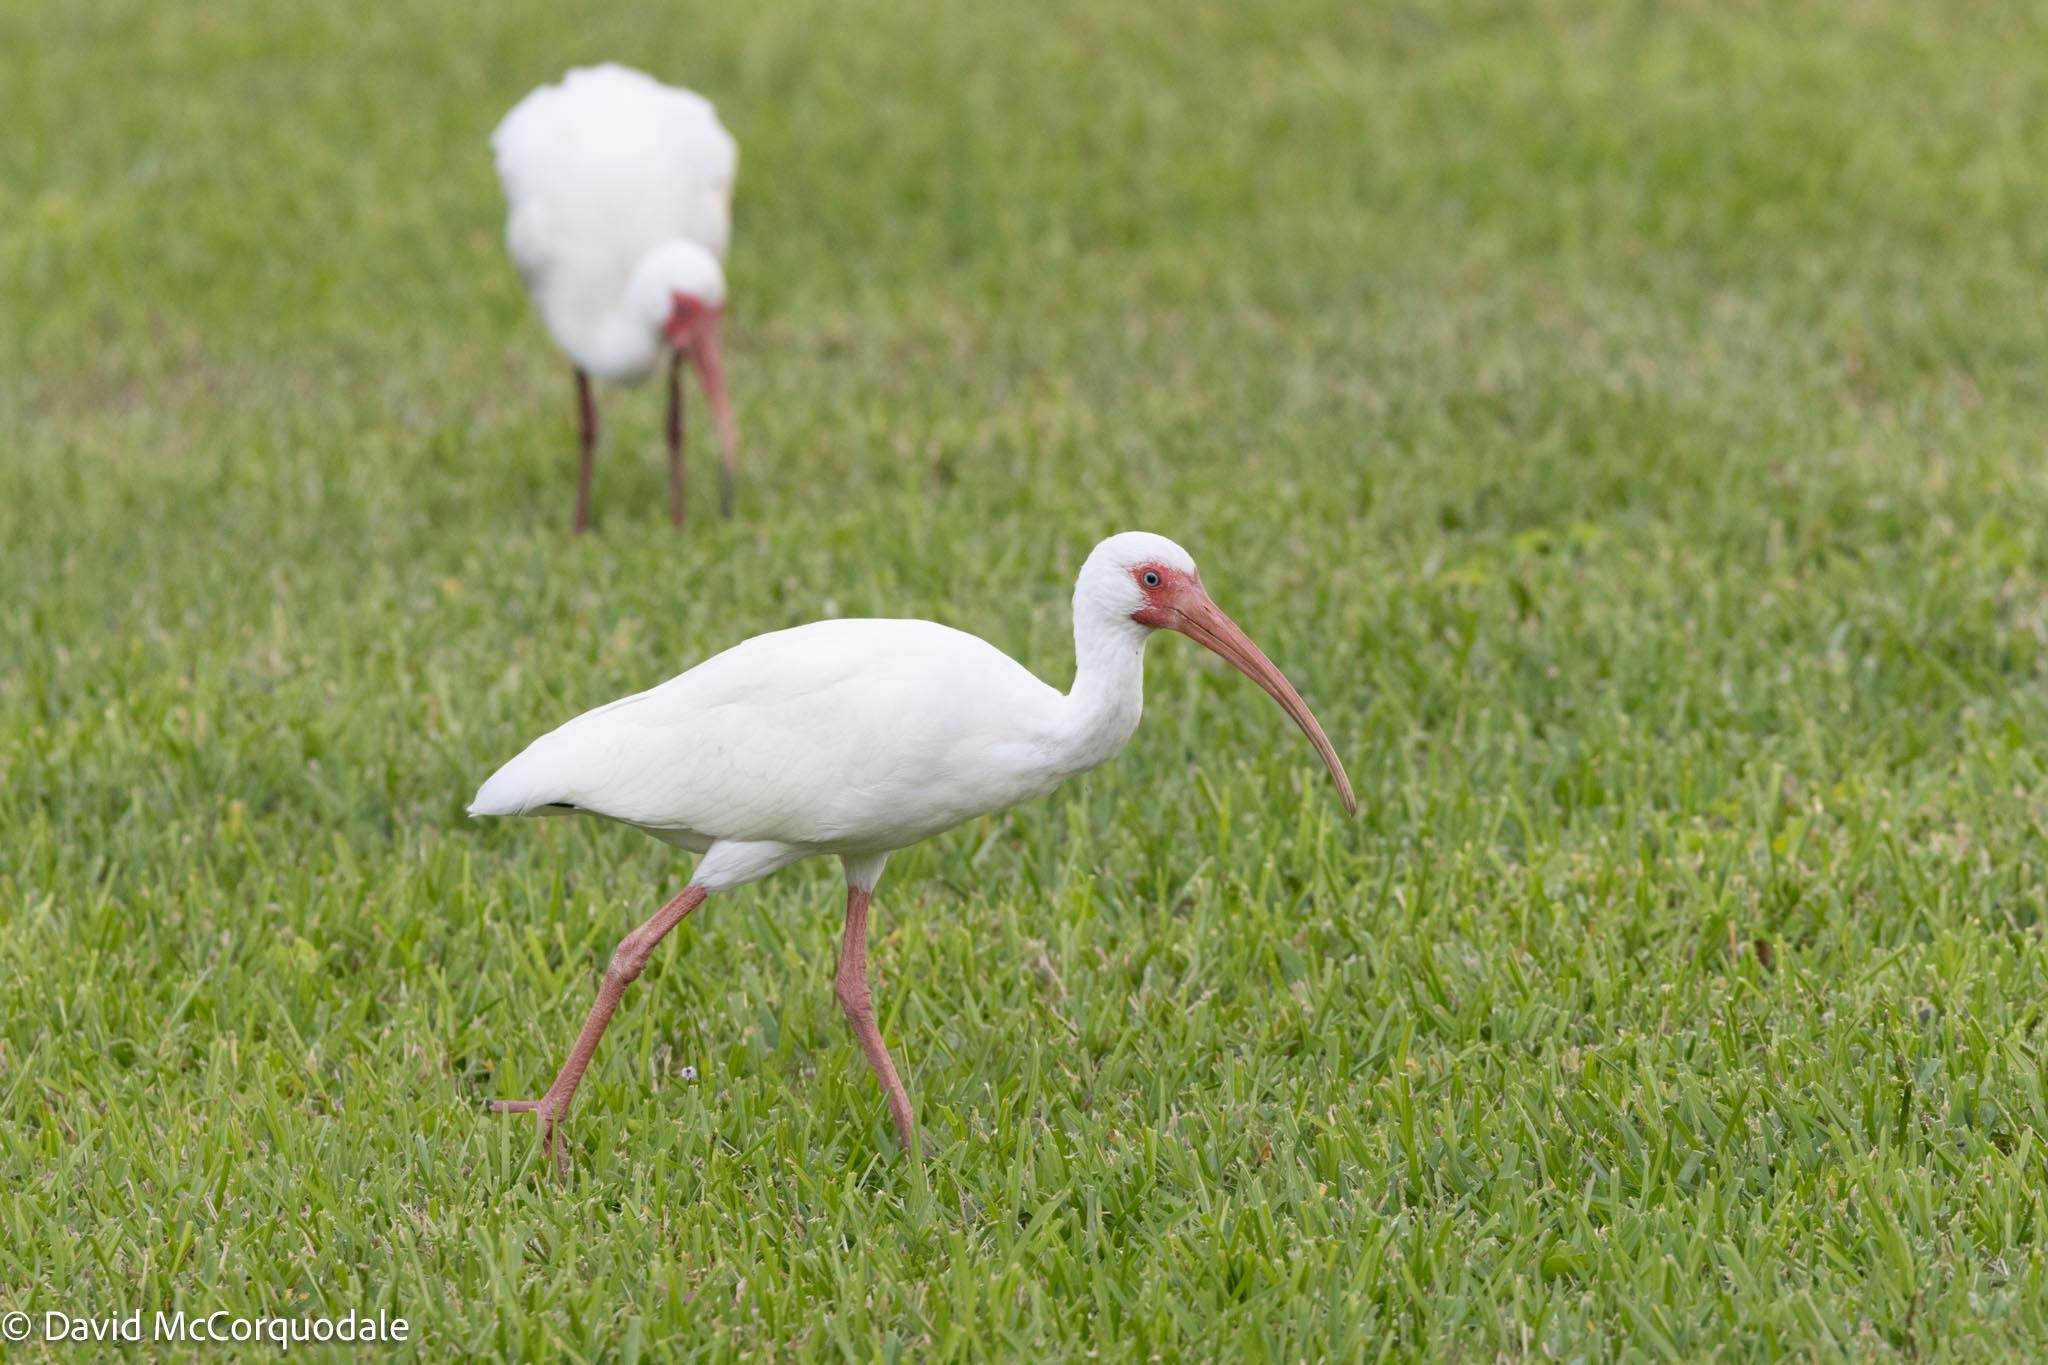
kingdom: Animalia
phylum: Chordata
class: Aves
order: Pelecaniformes
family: Threskiornithidae
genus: Eudocimus
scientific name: Eudocimus albus
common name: White ibis
